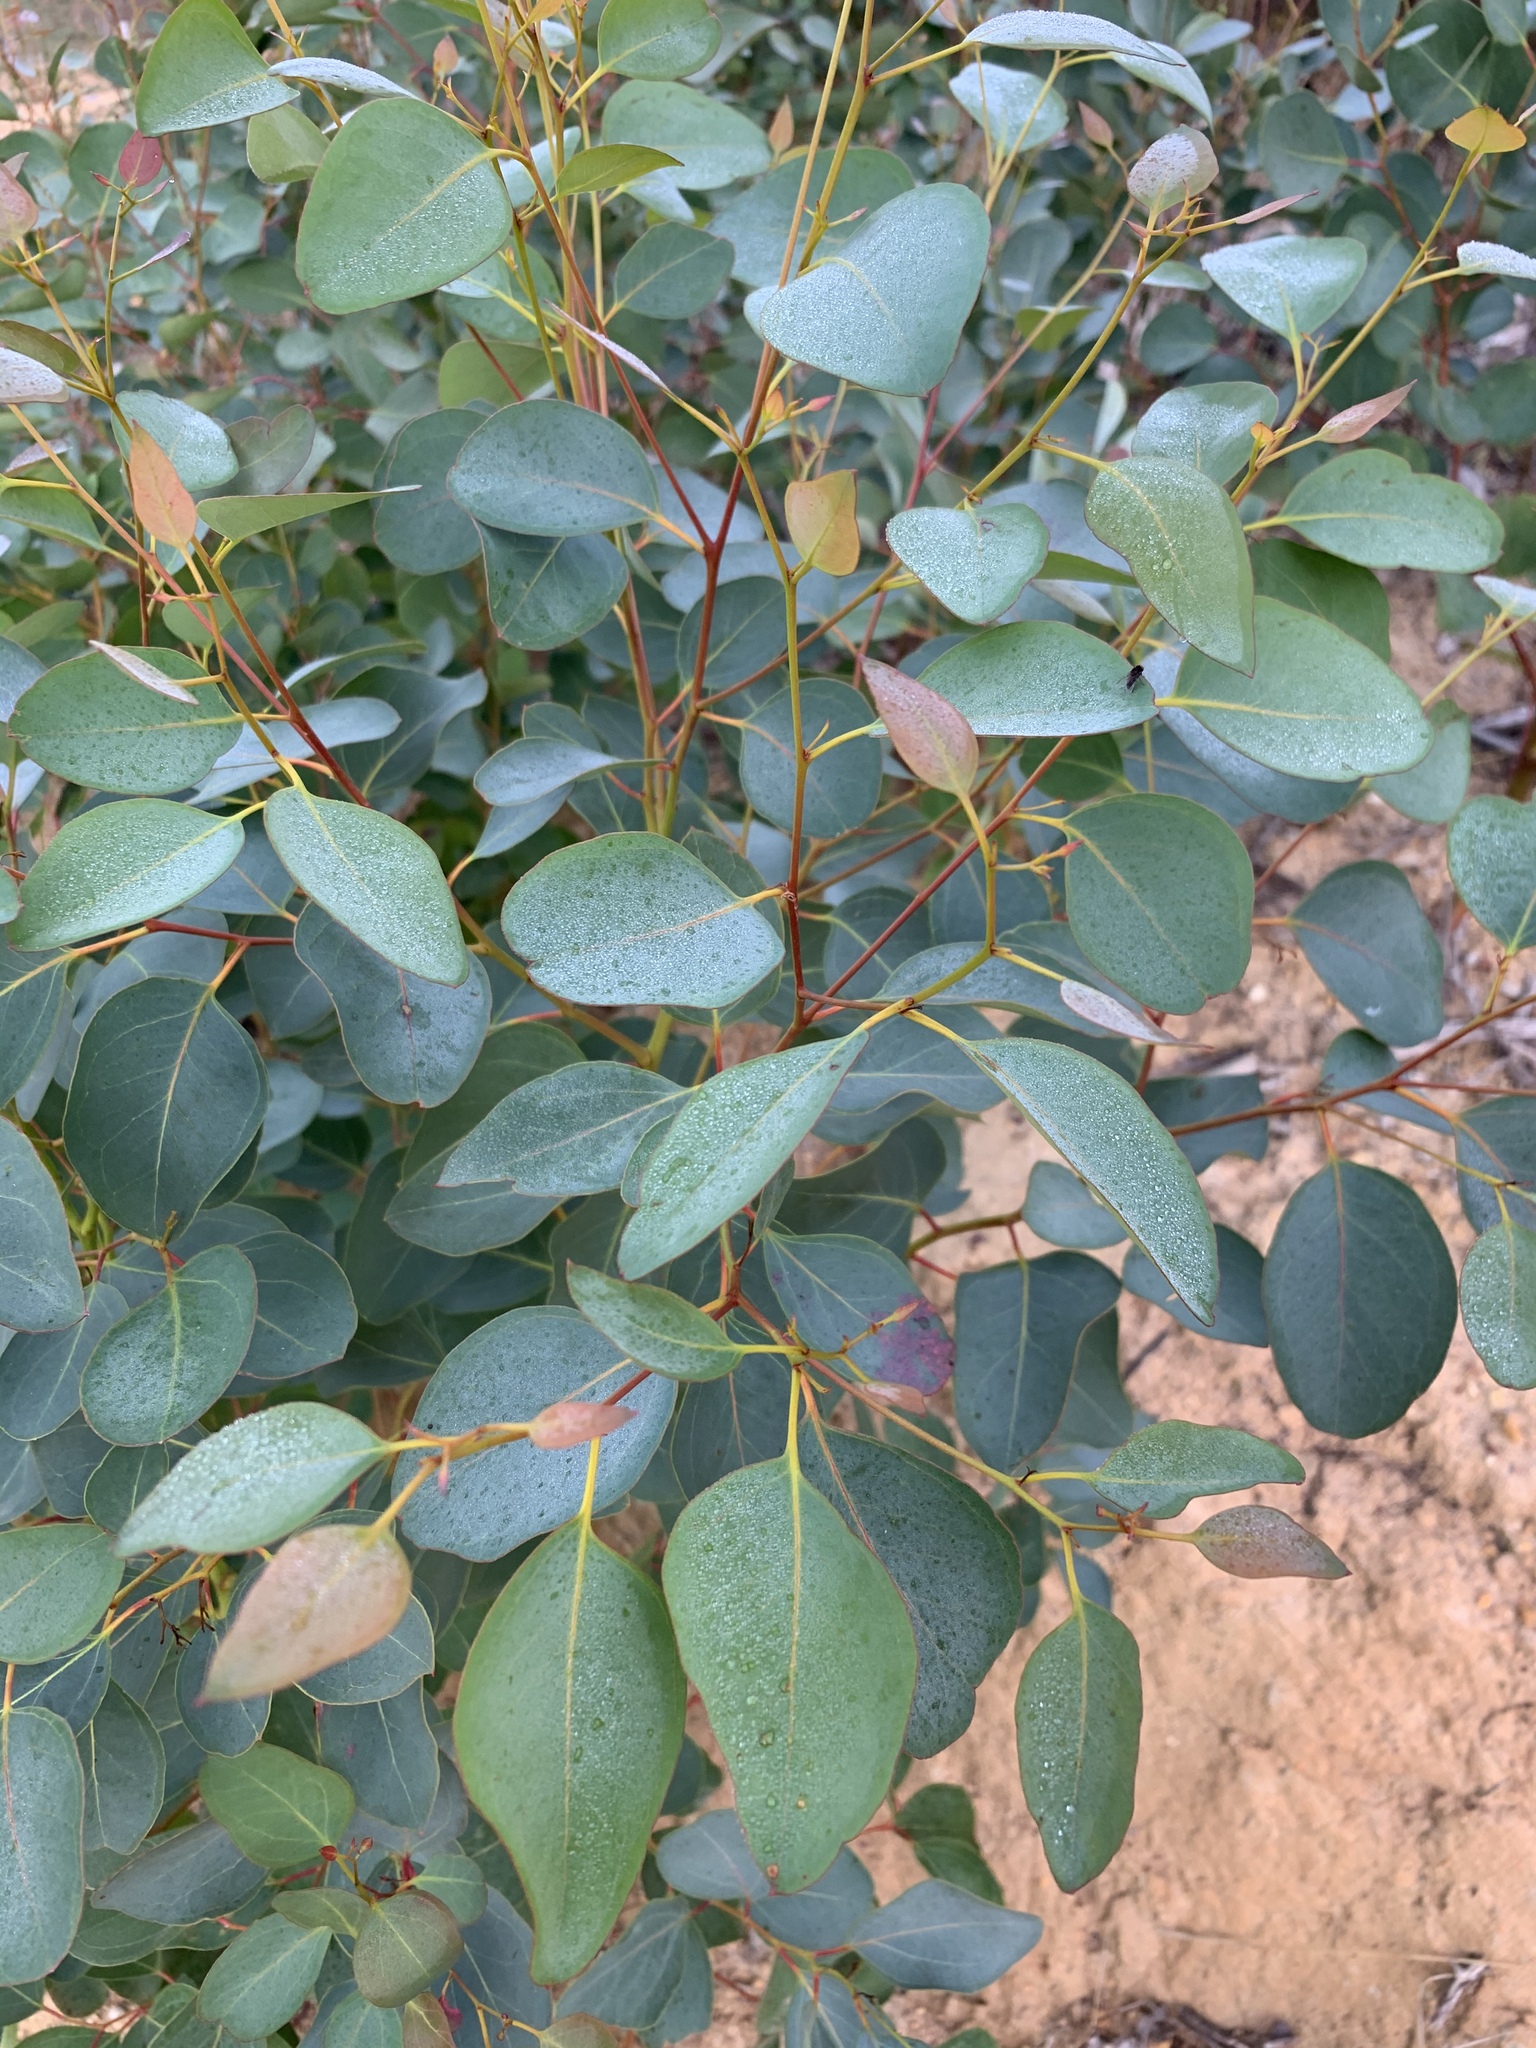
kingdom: Plantae
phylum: Tracheophyta
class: Magnoliopsida
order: Myrtales
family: Myrtaceae
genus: Eucalyptus
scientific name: Eucalyptus cladocalyx
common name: Sugargum
